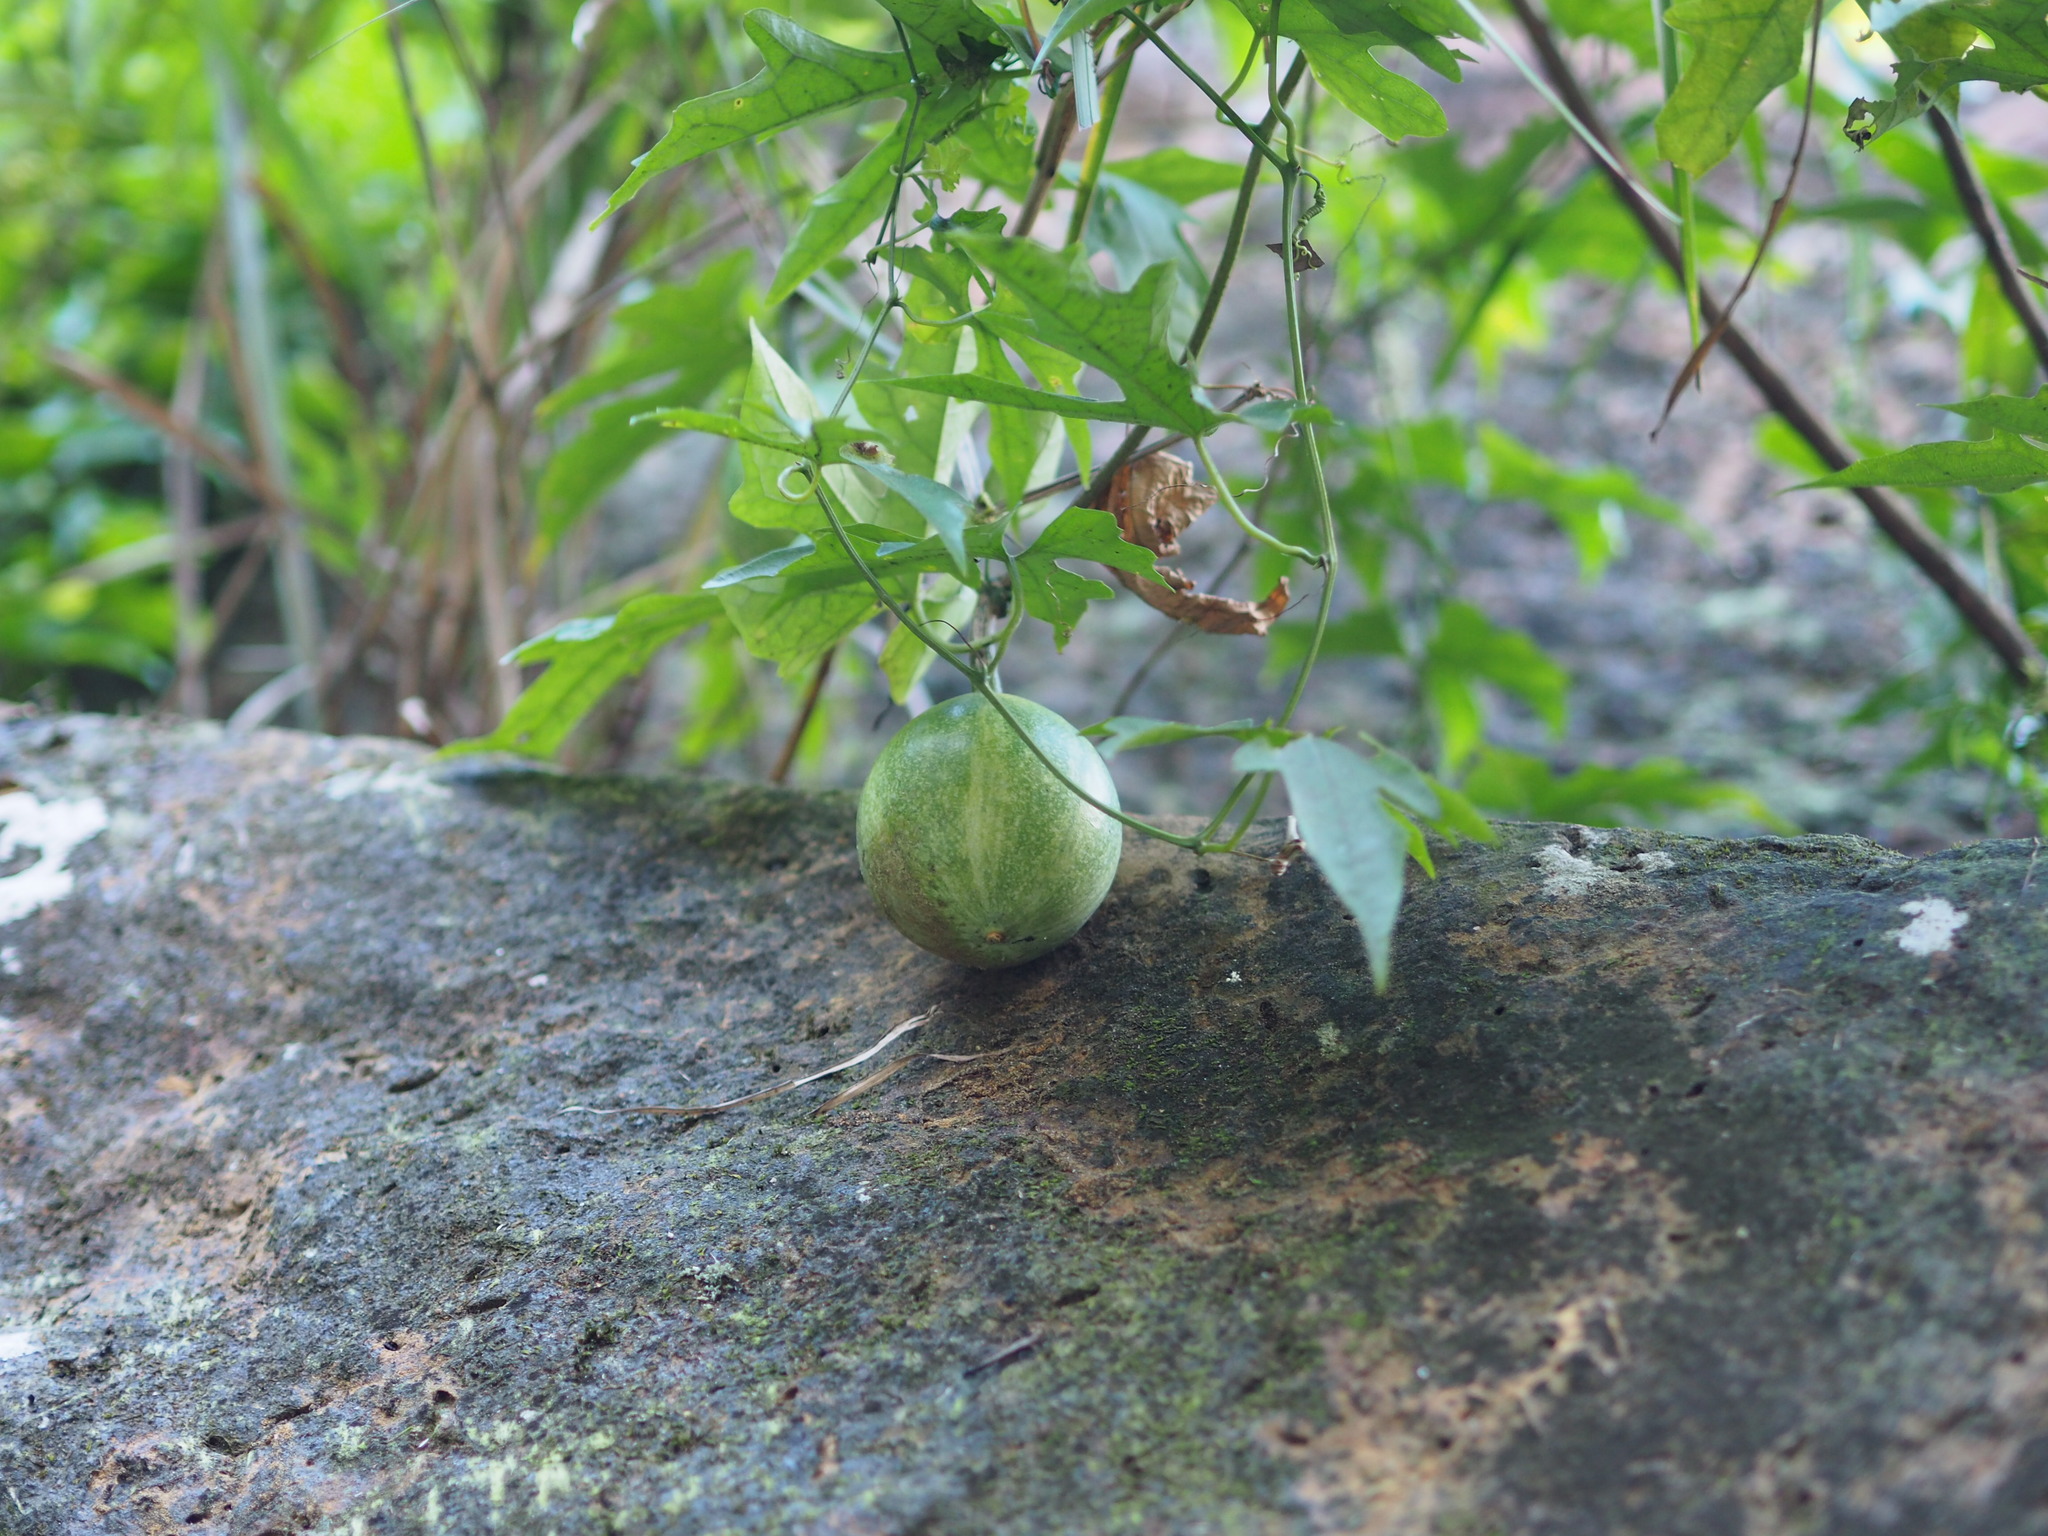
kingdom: Plantae
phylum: Tracheophyta
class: Magnoliopsida
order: Cucurbitales
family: Cucurbitaceae
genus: Trichosanthes
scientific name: Trichosanthes laceribractea
